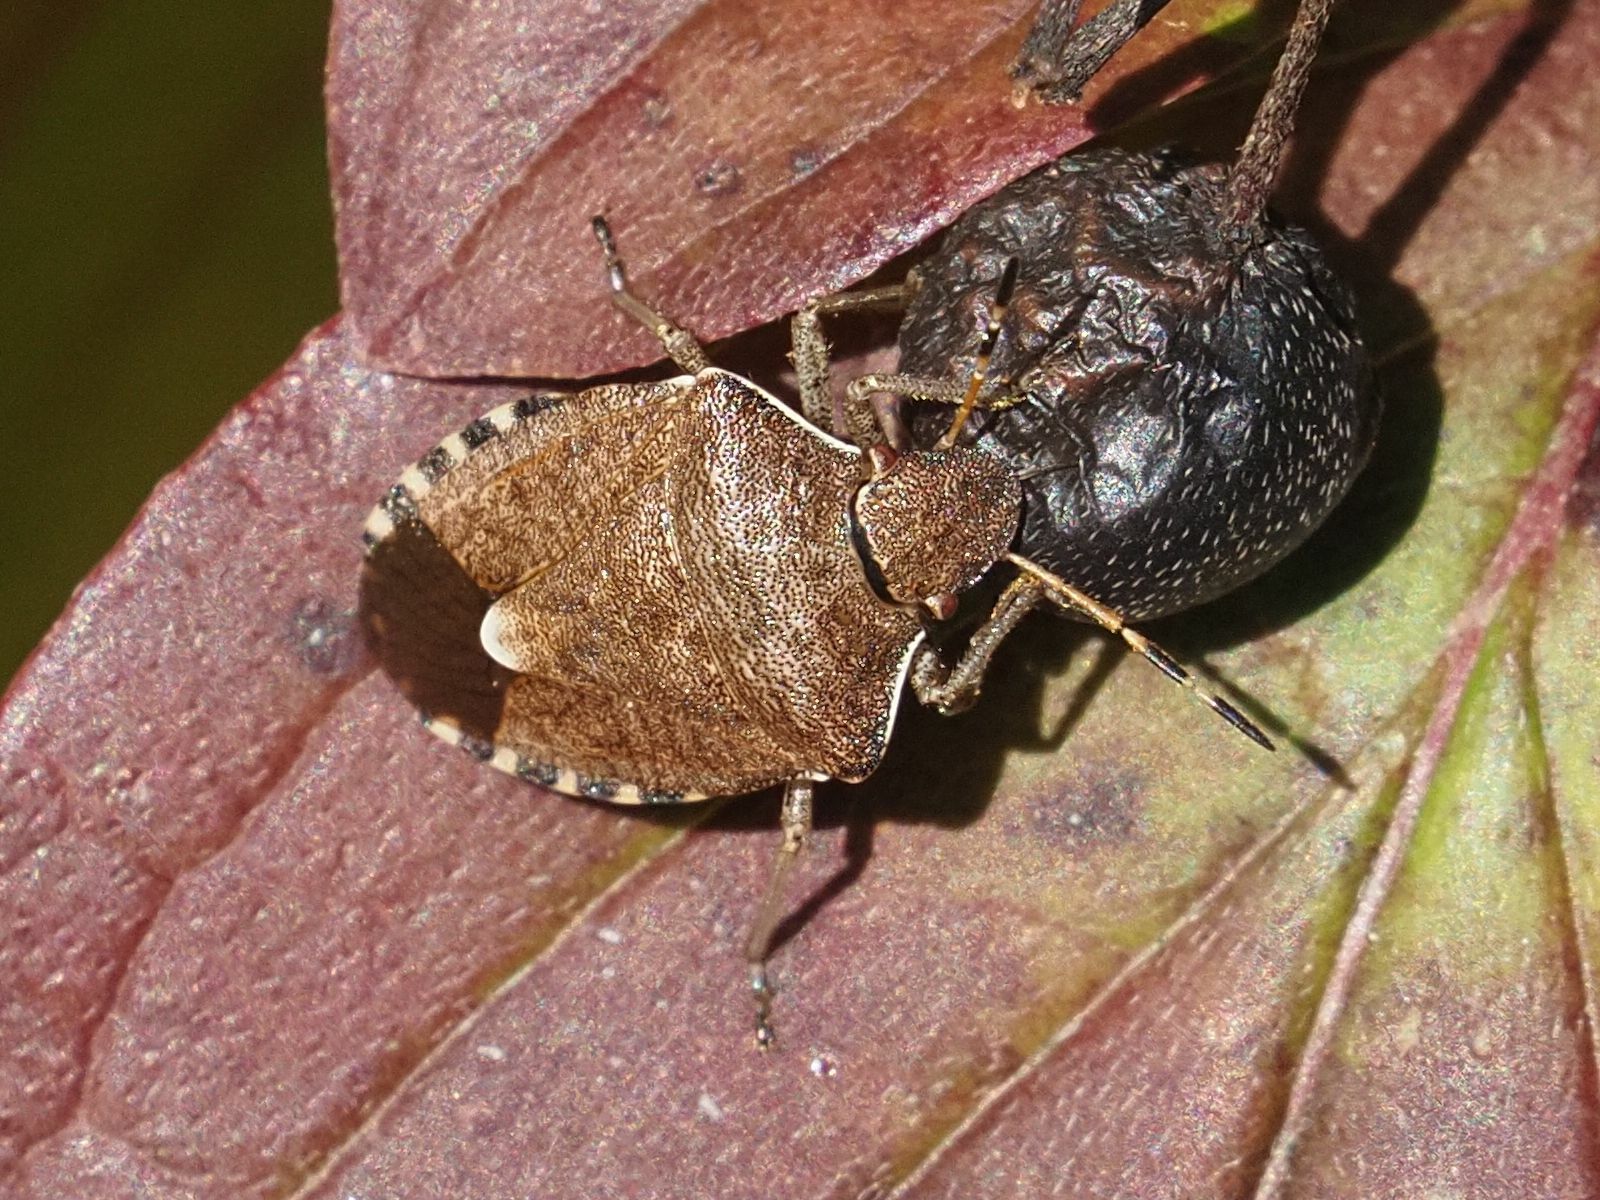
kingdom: Animalia
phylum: Arthropoda
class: Insecta
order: Hemiptera
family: Pentatomidae
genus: Holcostethus
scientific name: Holcostethus strictus
